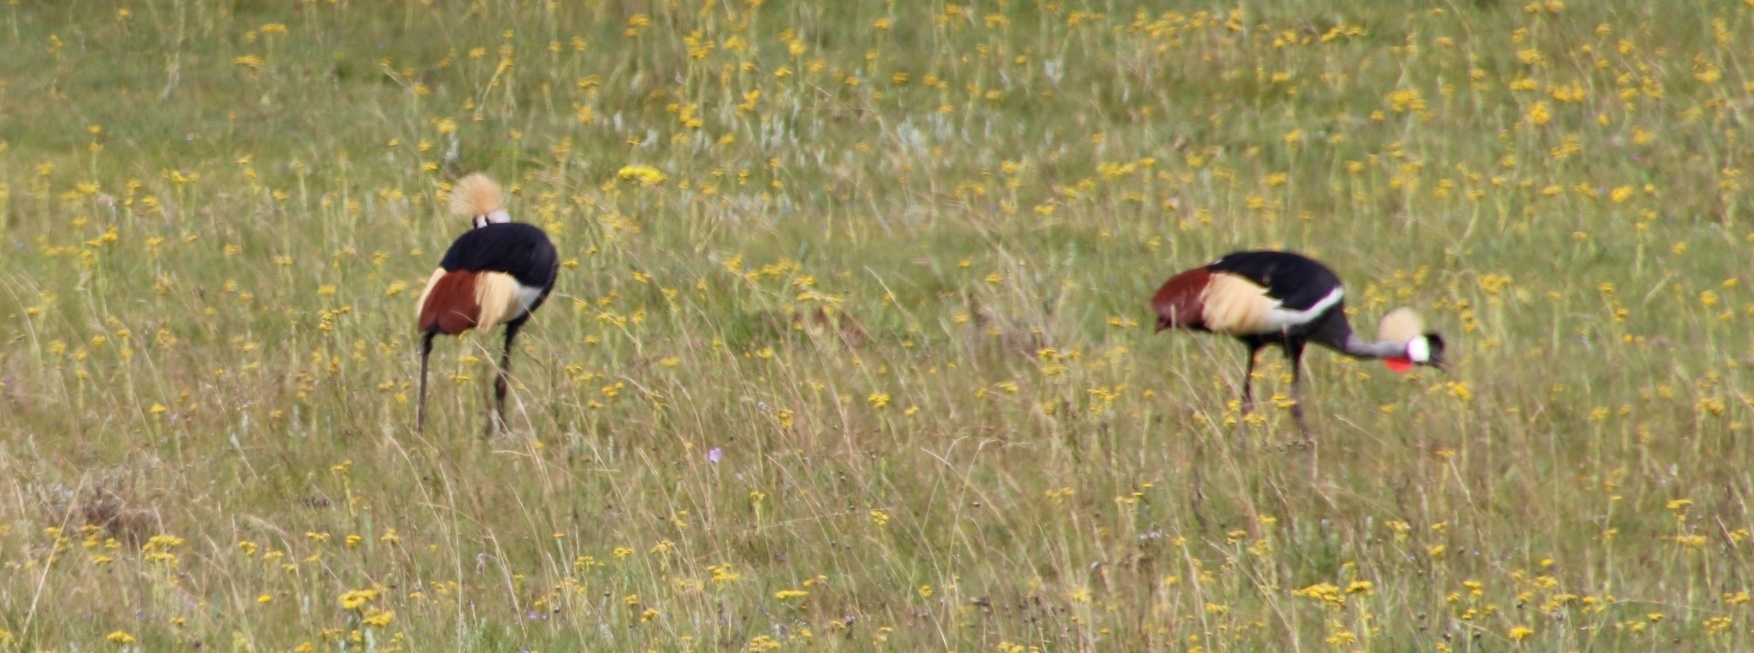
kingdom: Animalia
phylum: Chordata
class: Aves
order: Gruiformes
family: Gruidae
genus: Balearica
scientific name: Balearica regulorum
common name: Grey crowned crane
